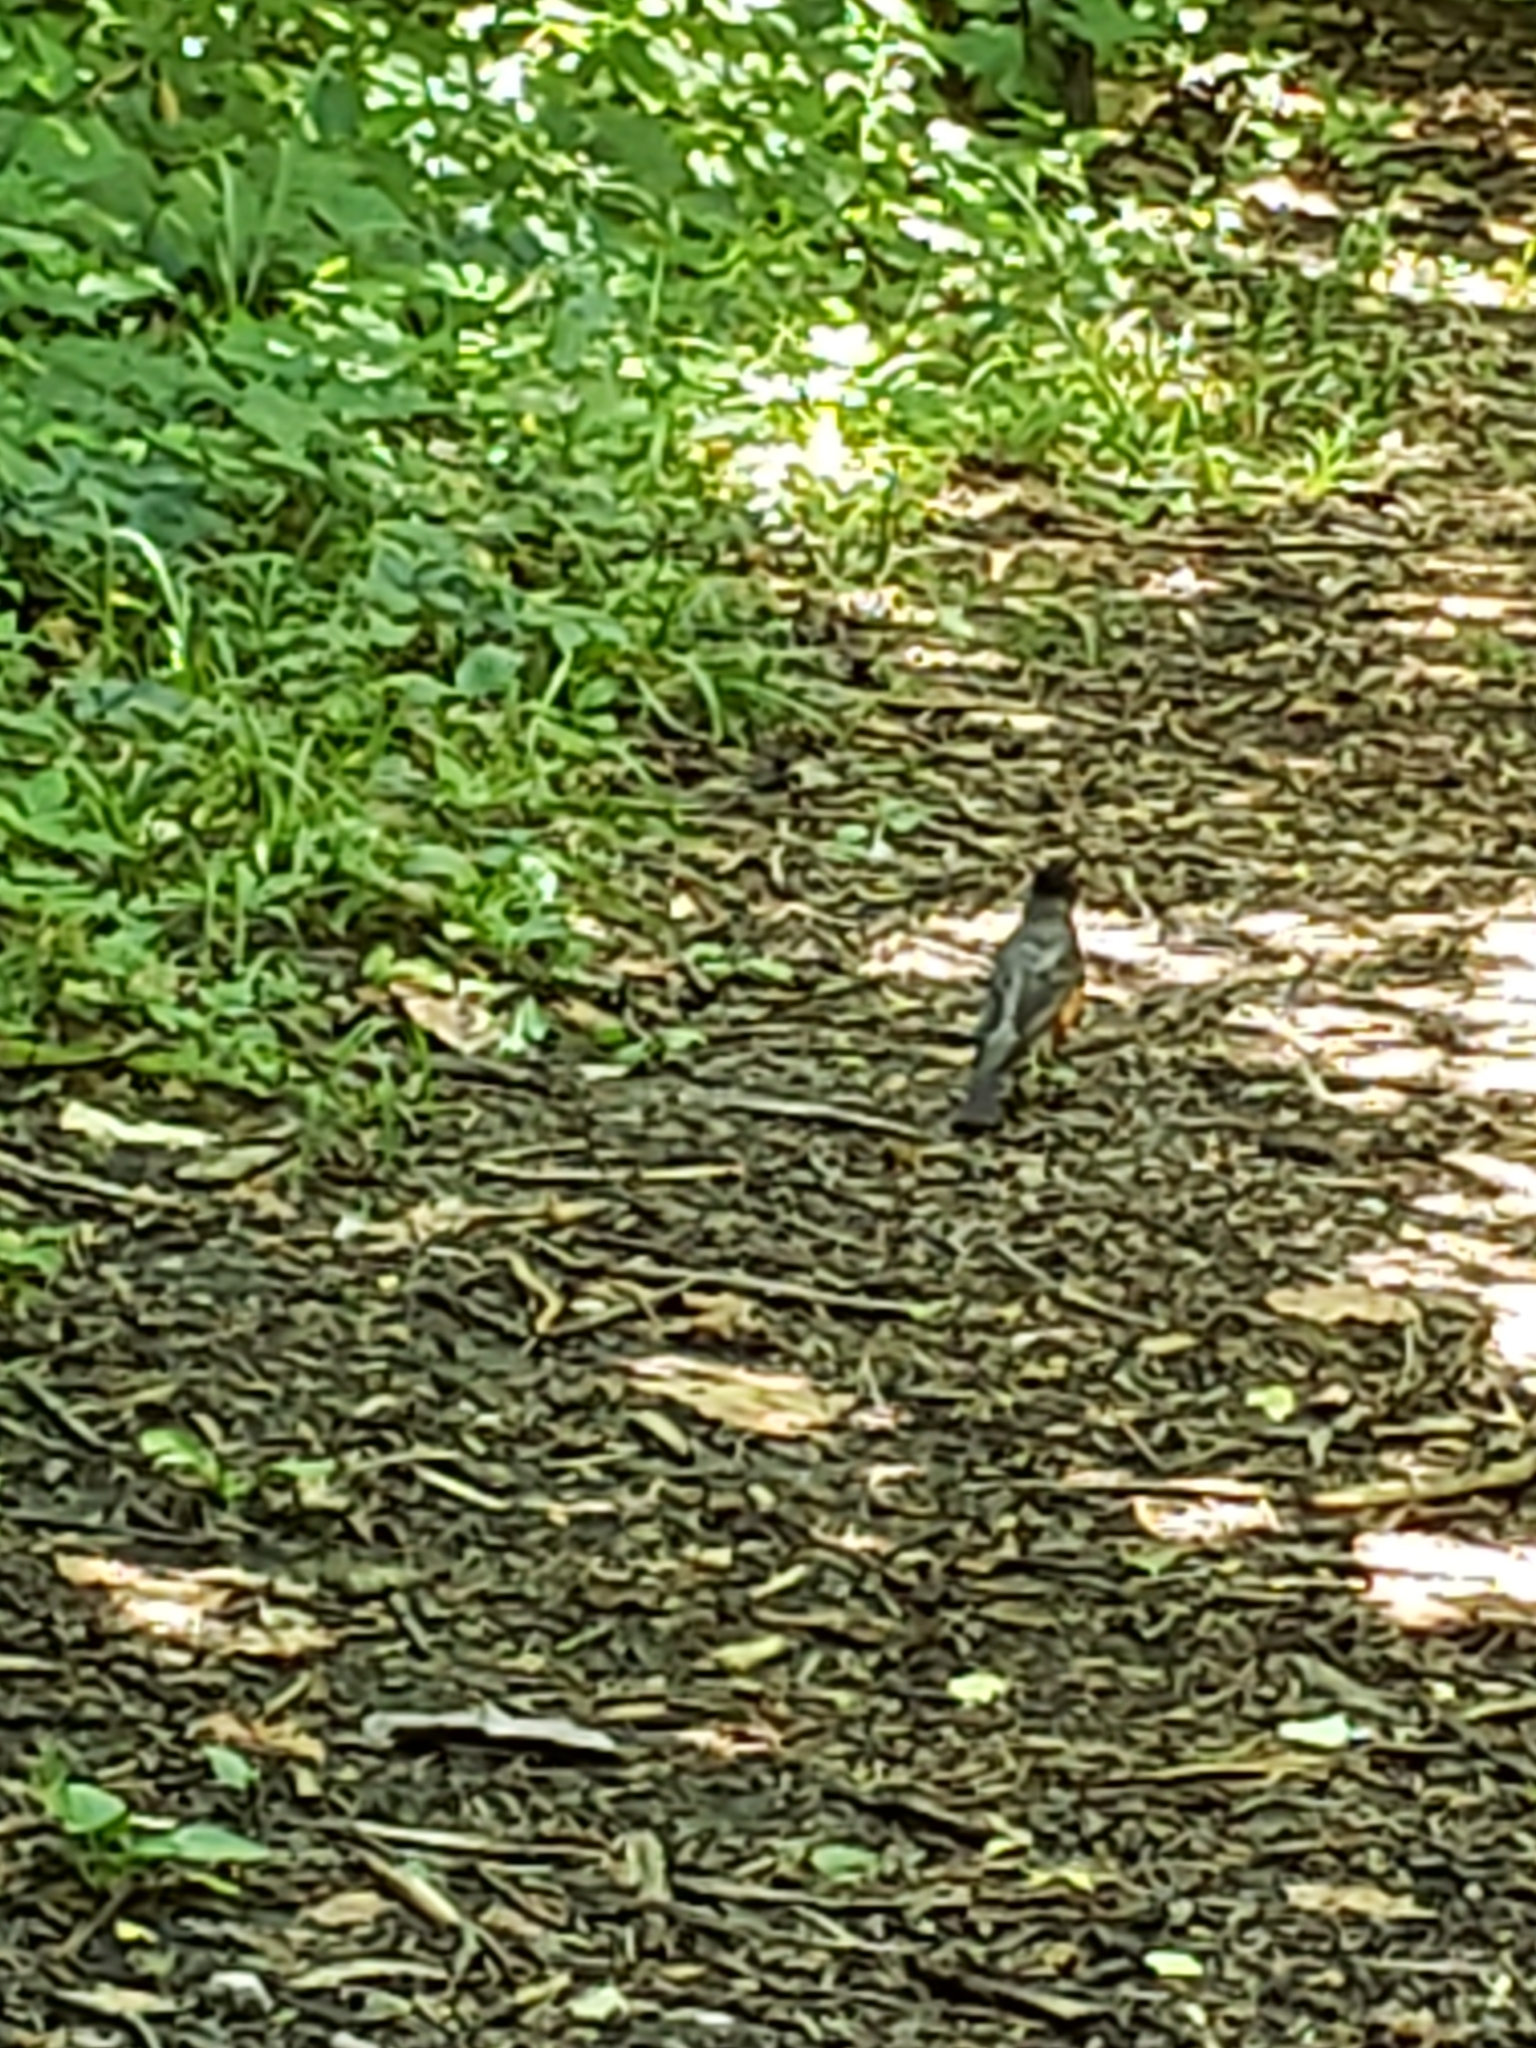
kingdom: Animalia
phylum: Chordata
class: Aves
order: Passeriformes
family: Turdidae
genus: Turdus
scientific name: Turdus migratorius
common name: American robin
